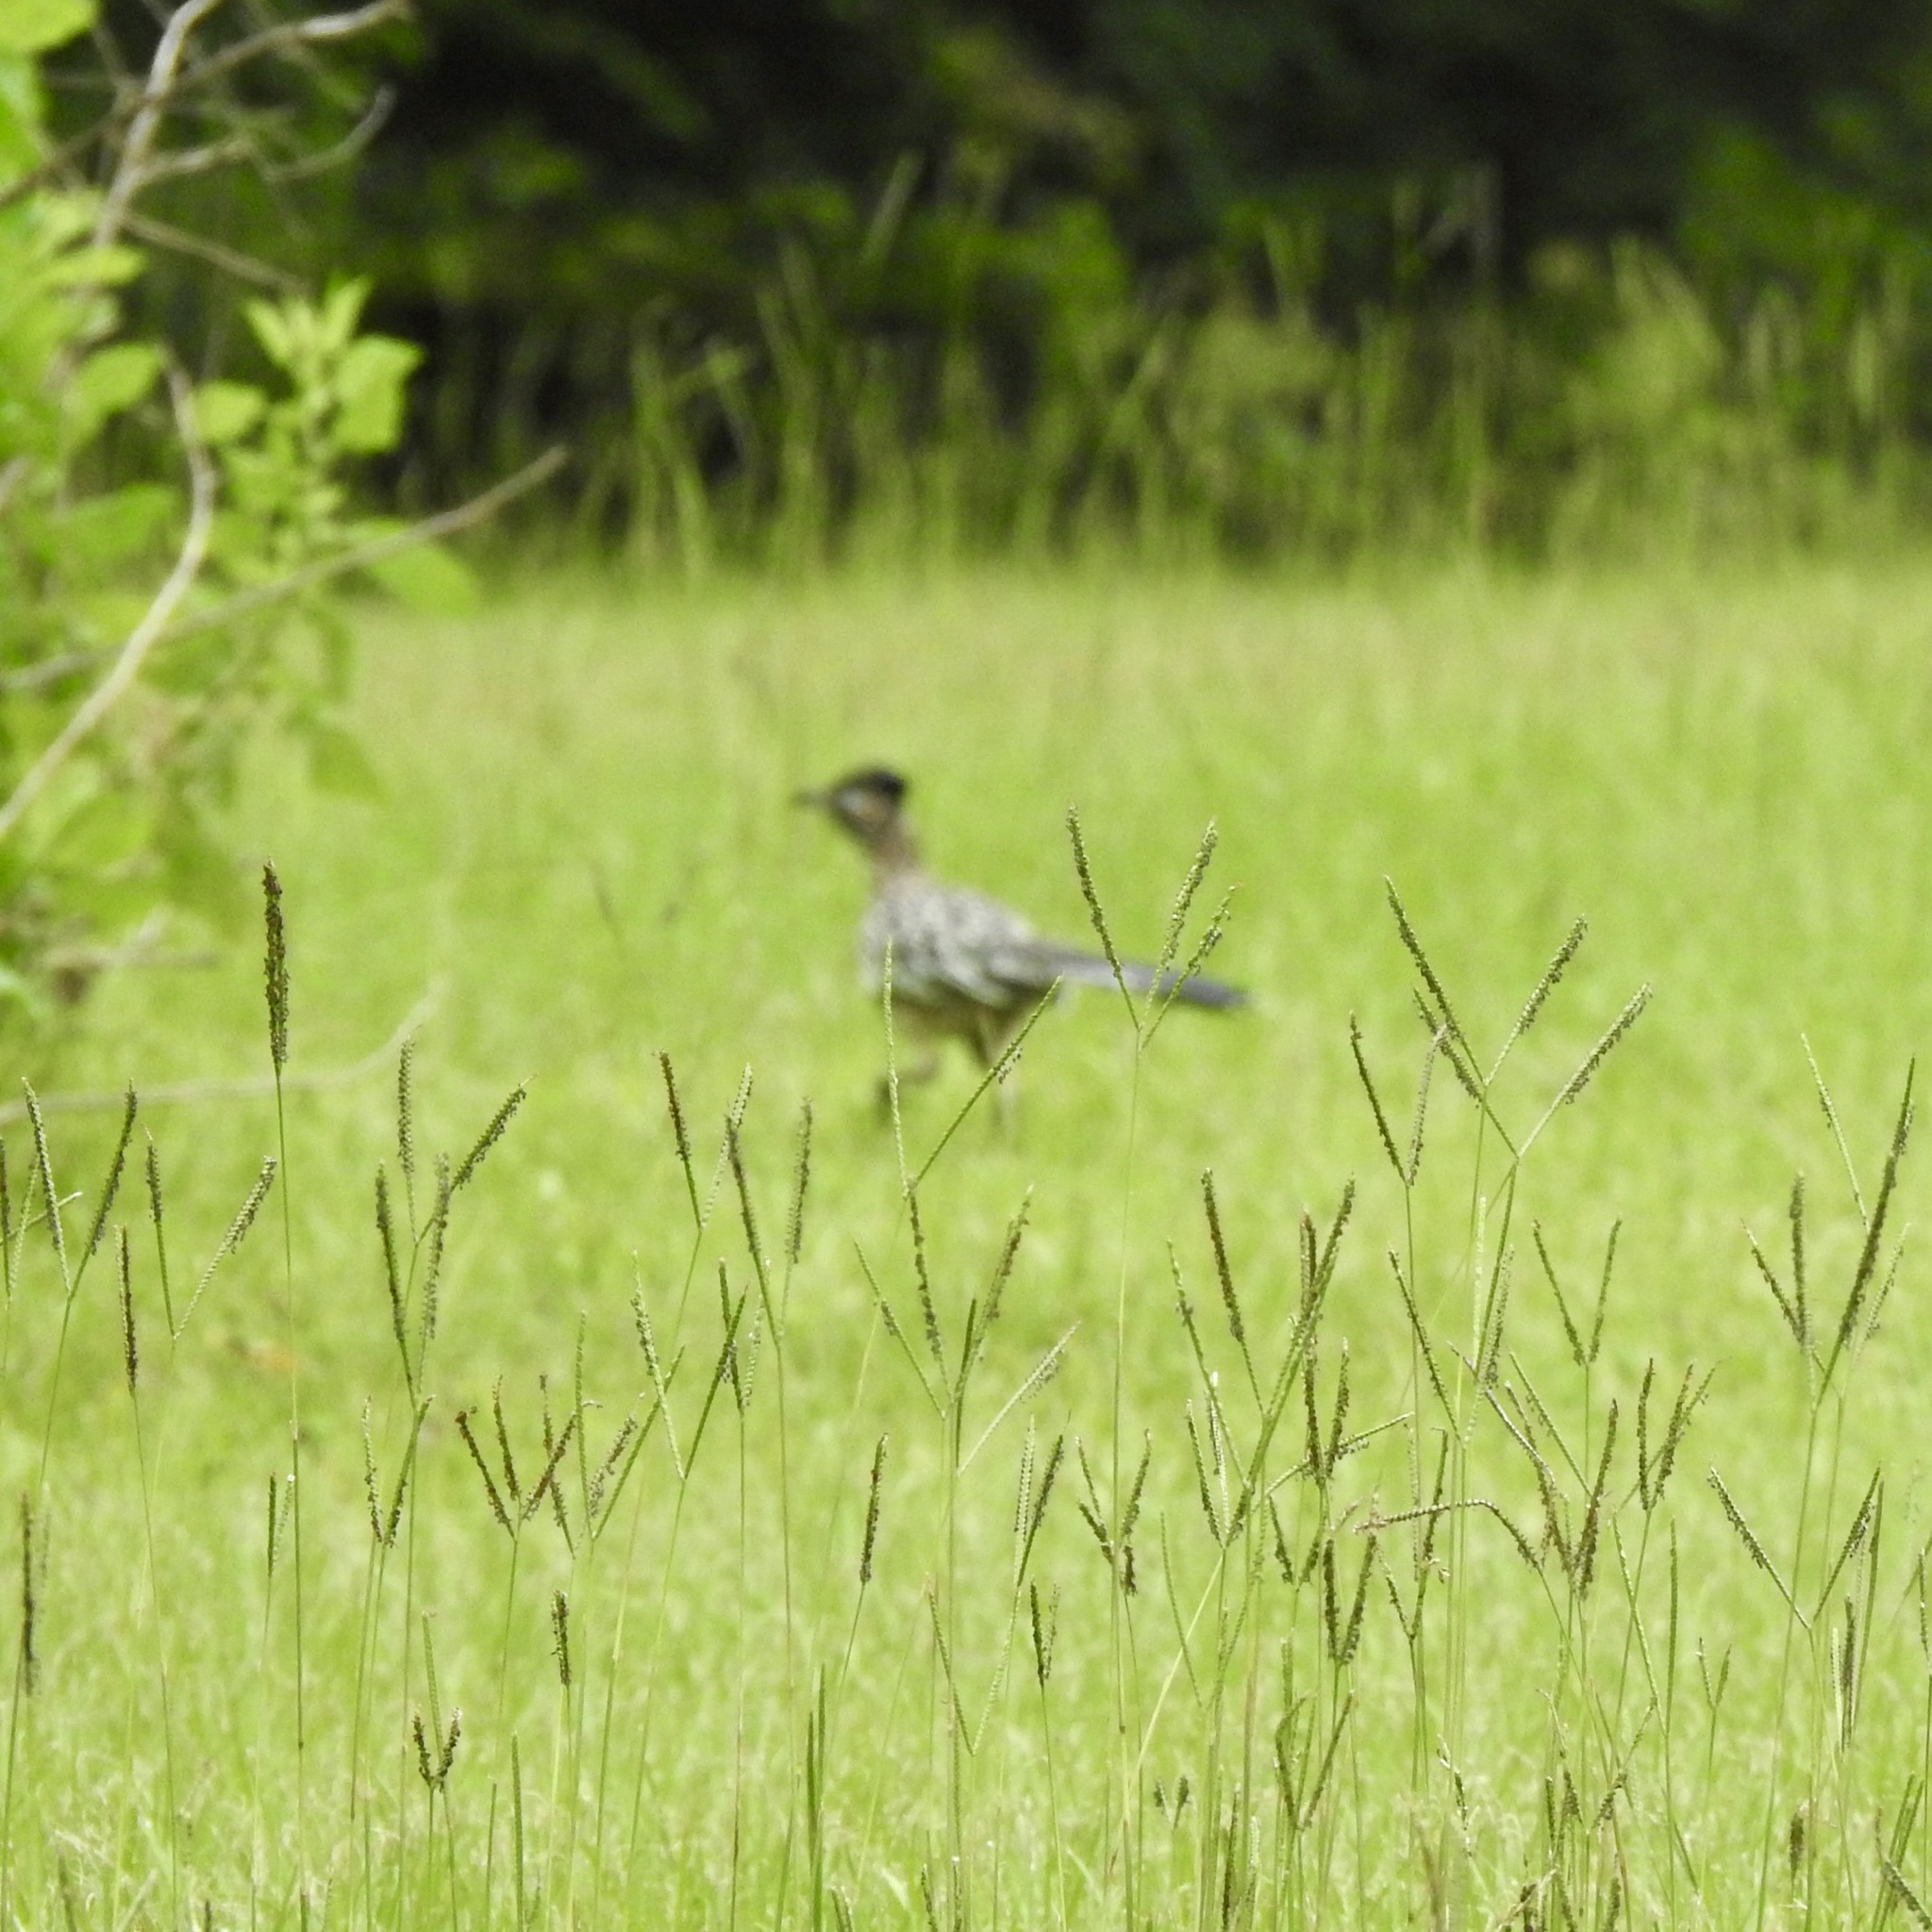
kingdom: Animalia
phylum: Chordata
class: Aves
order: Cuculiformes
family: Cuculidae
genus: Geococcyx
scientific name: Geococcyx californianus
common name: Greater roadrunner
